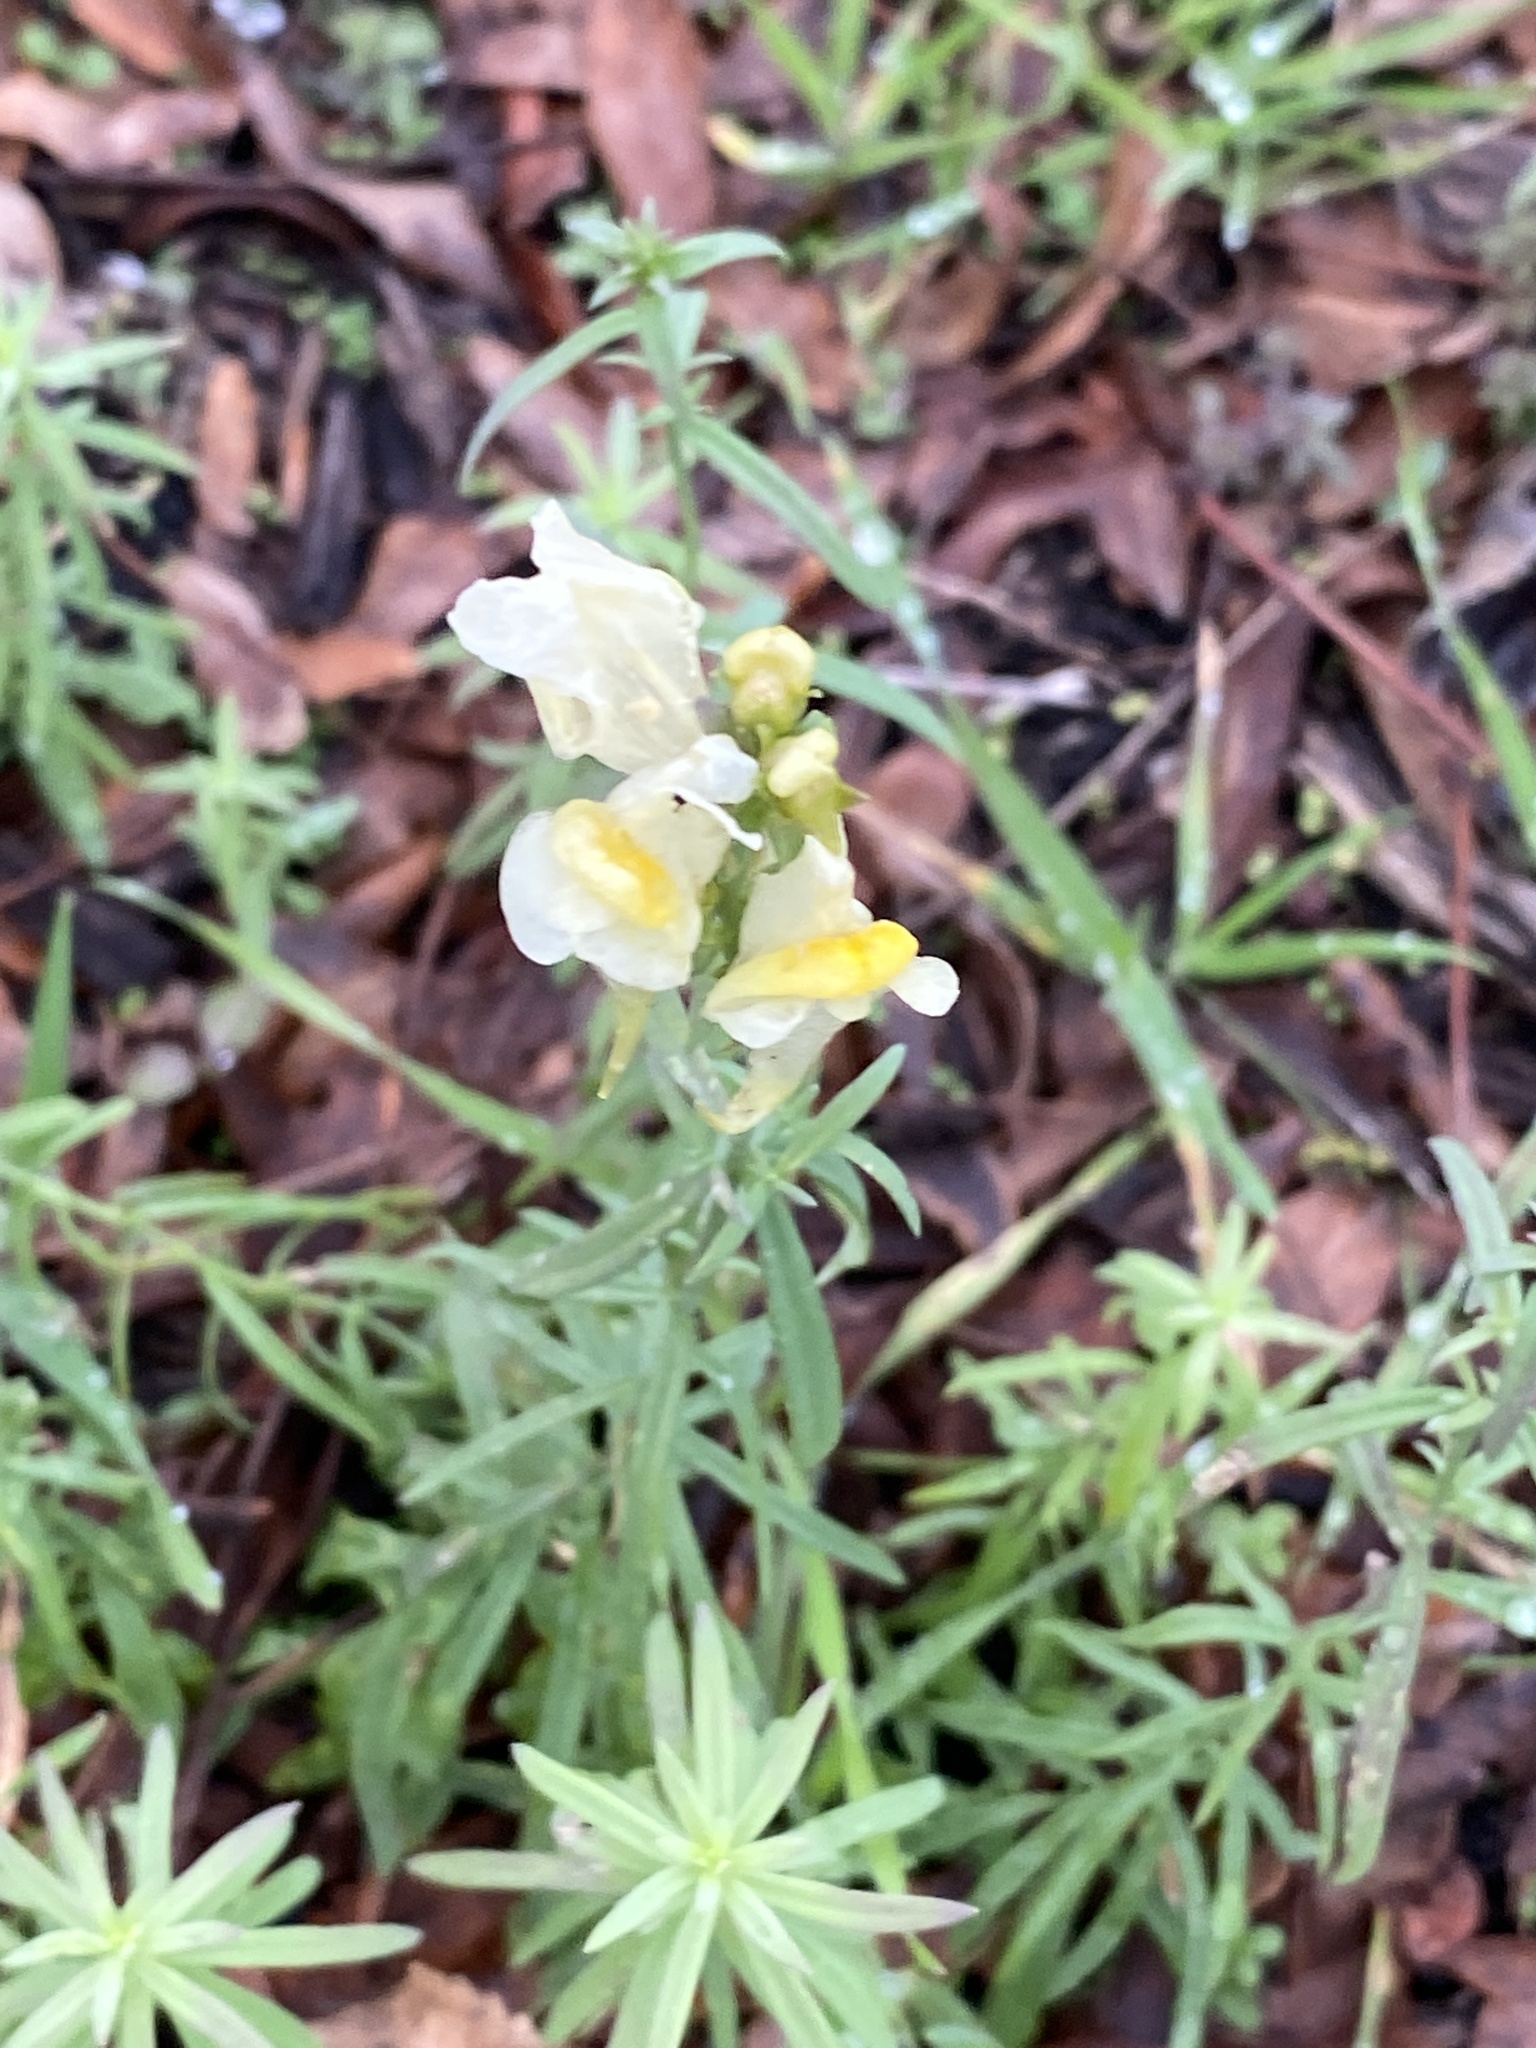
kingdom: Plantae
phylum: Tracheophyta
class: Magnoliopsida
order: Lamiales
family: Plantaginaceae
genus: Linaria
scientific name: Linaria vulgaris
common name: Butter and eggs
